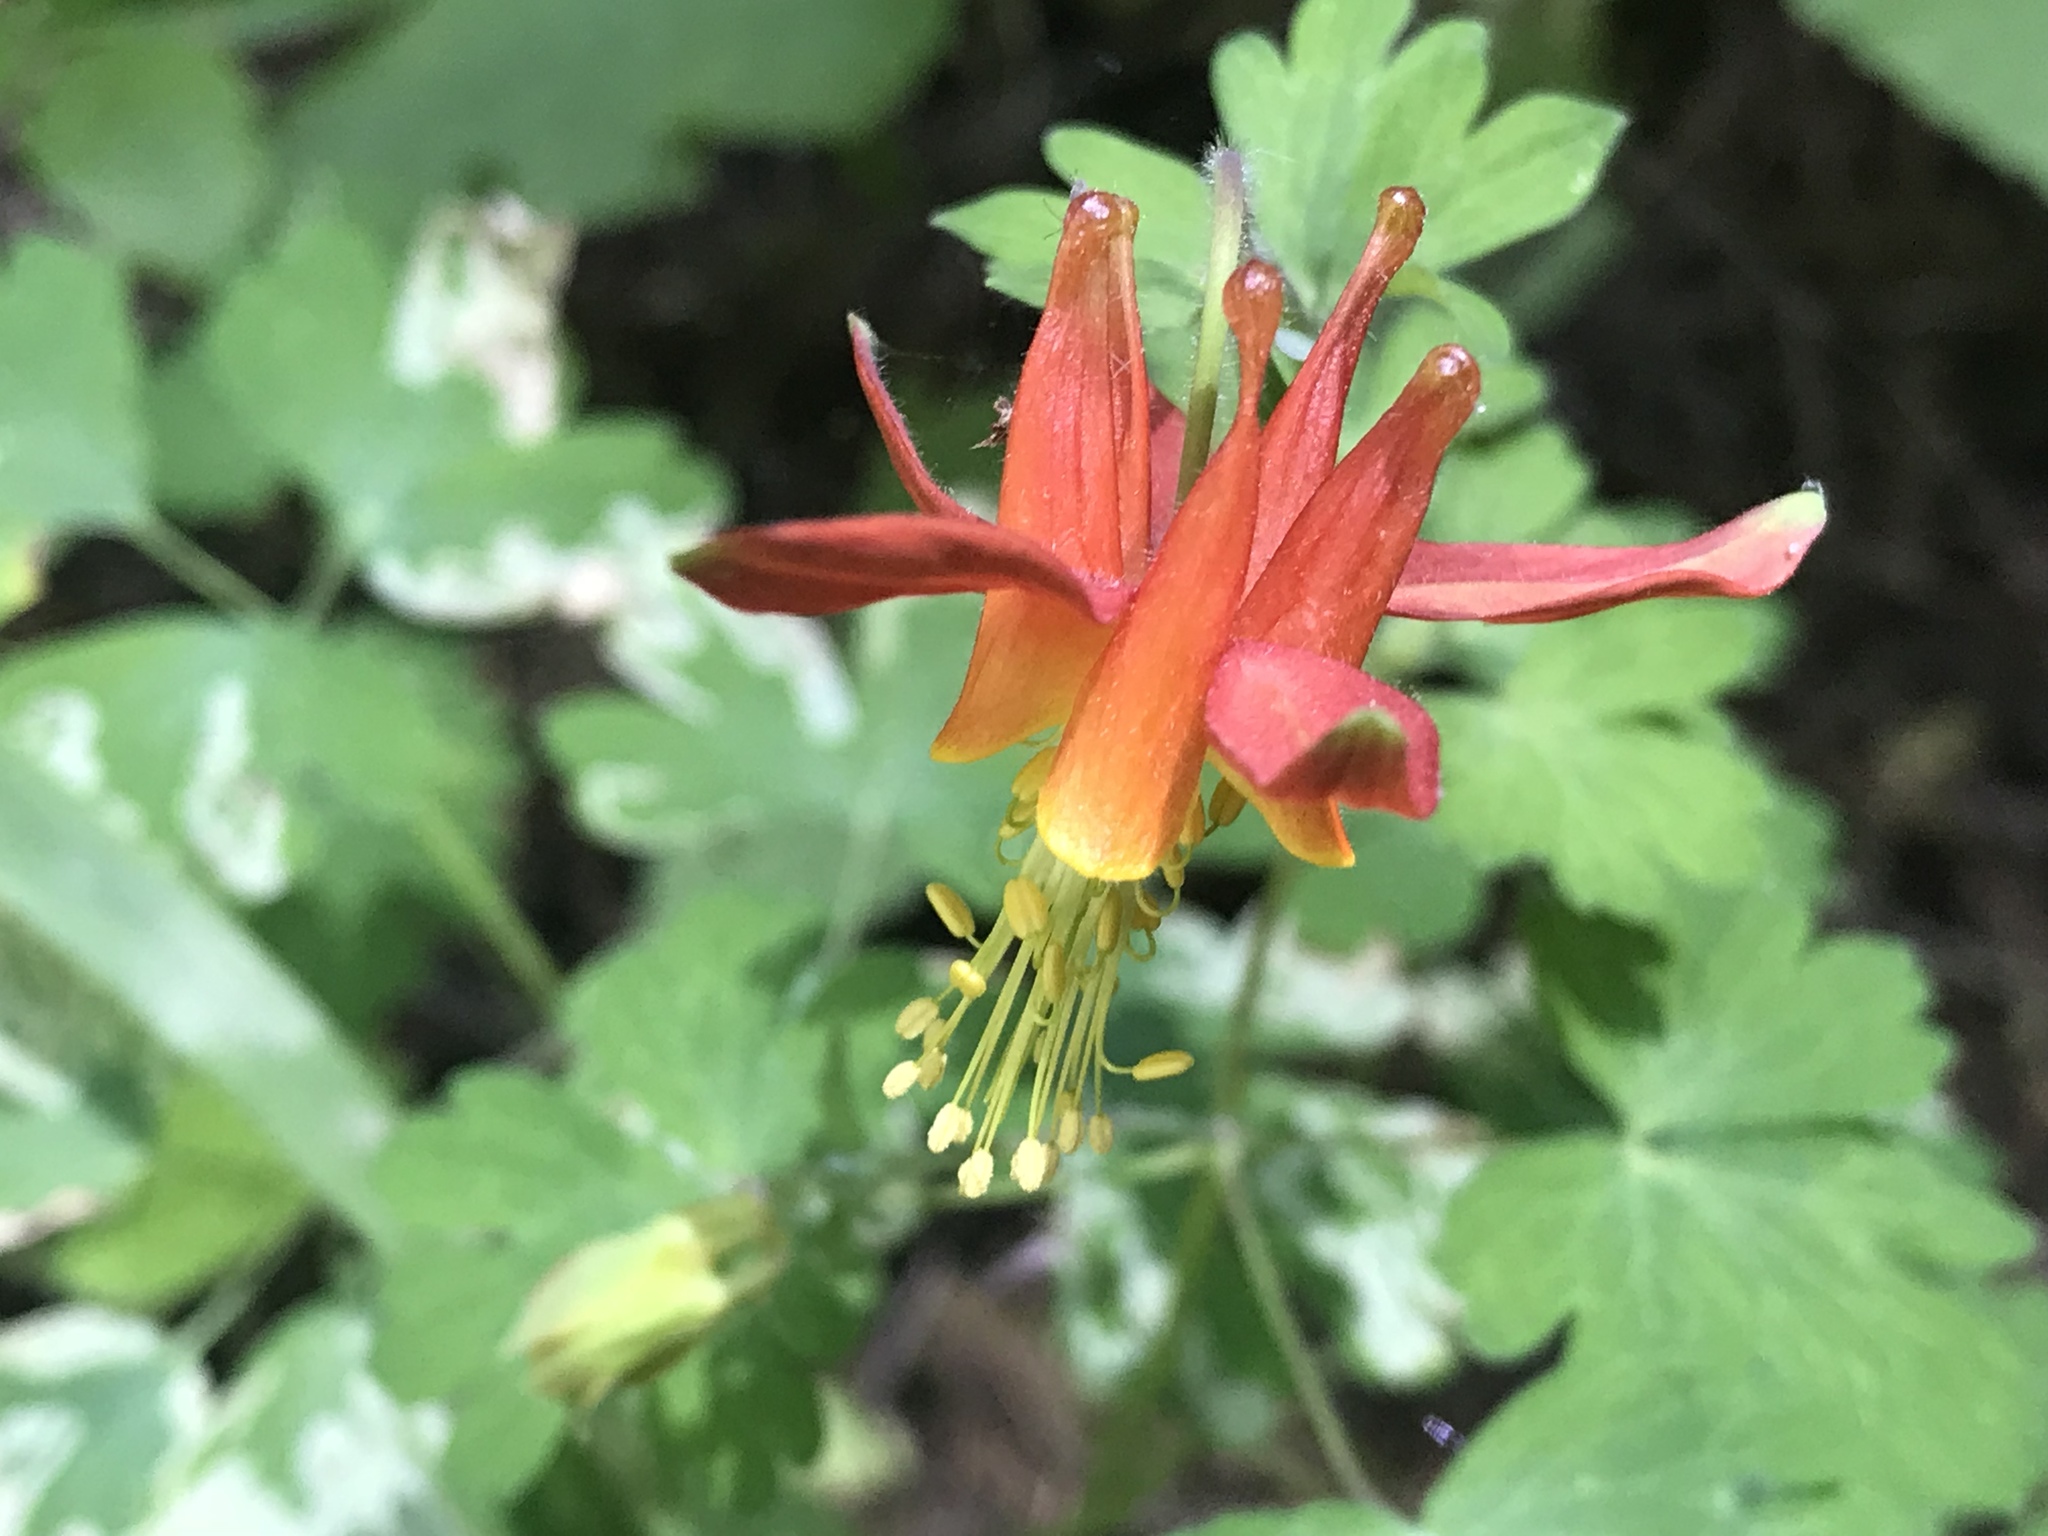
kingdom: Plantae
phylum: Tracheophyta
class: Magnoliopsida
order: Ranunculales
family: Ranunculaceae
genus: Aquilegia
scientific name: Aquilegia formosa
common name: Sitka columbine
